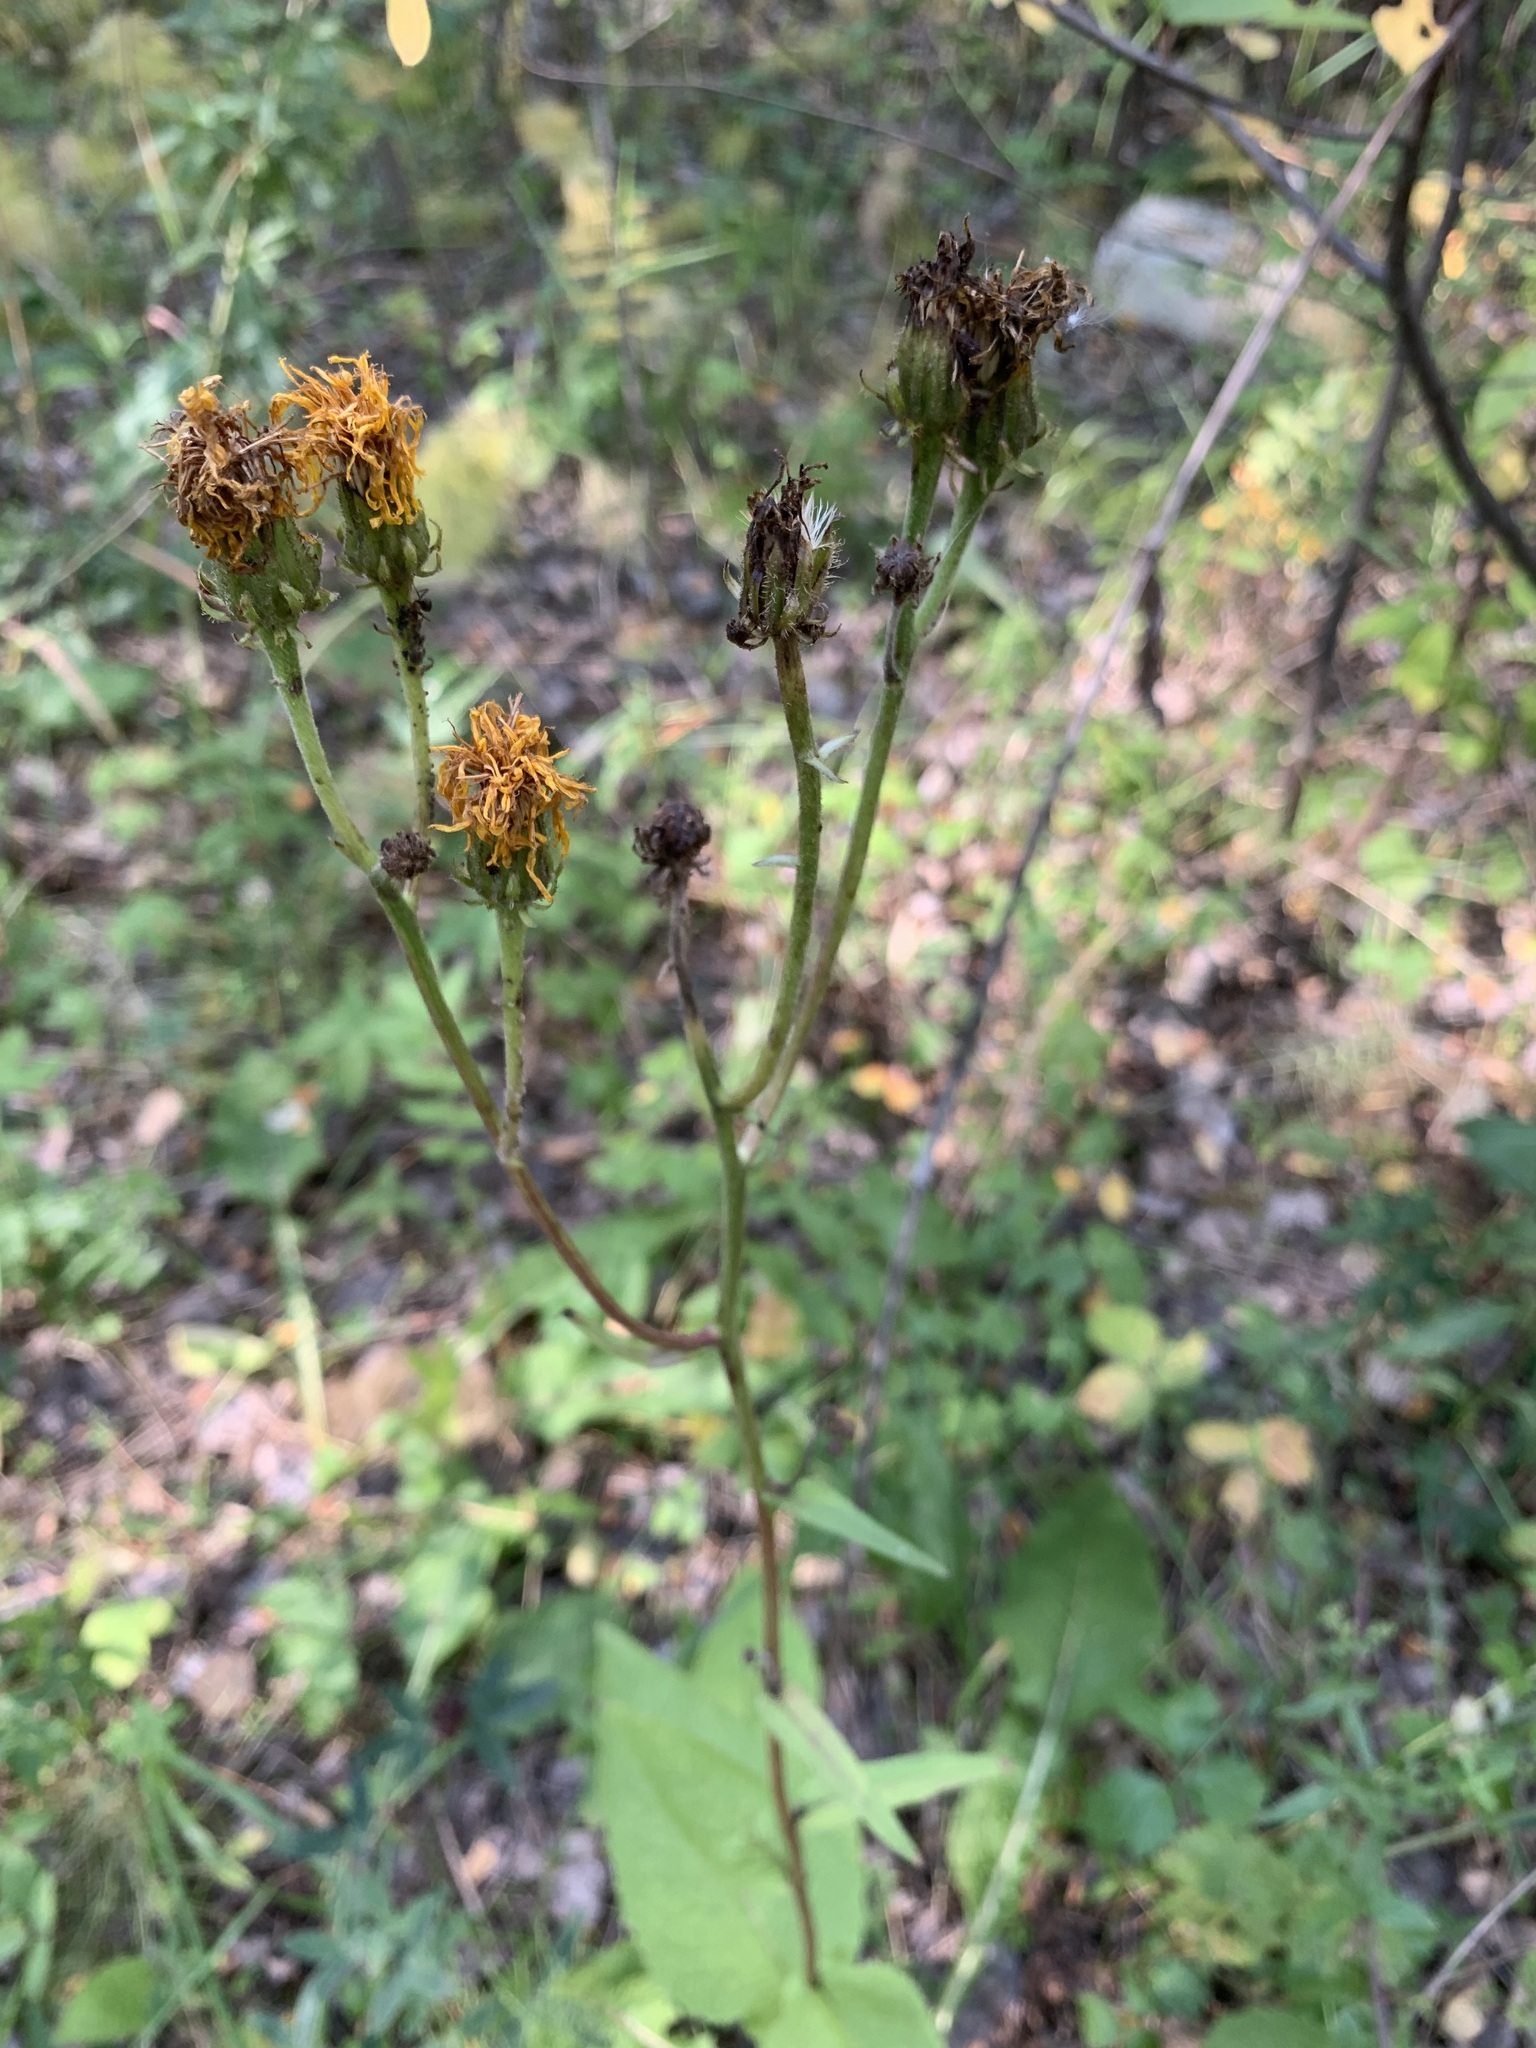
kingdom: Plantae
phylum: Tracheophyta
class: Magnoliopsida
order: Asterales
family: Asteraceae
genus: Crepis
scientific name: Crepis sibirica
